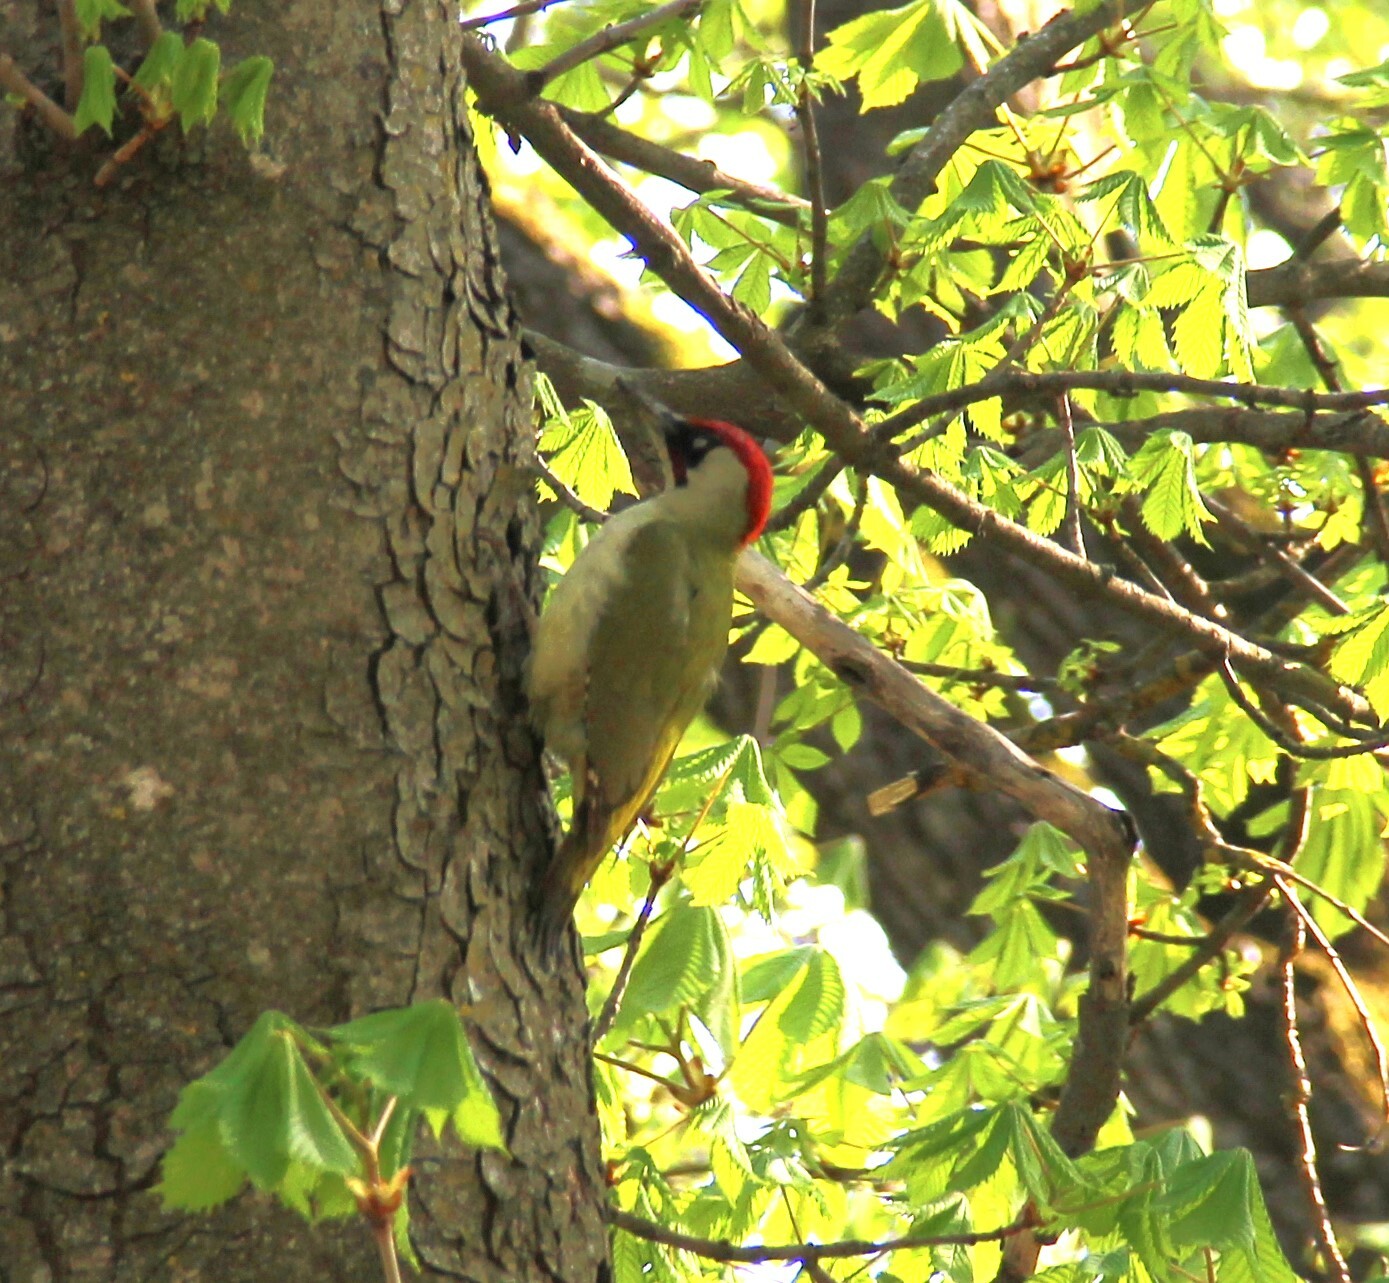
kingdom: Animalia
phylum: Chordata
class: Aves
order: Piciformes
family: Picidae
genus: Picus
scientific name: Picus viridis
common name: European green woodpecker
